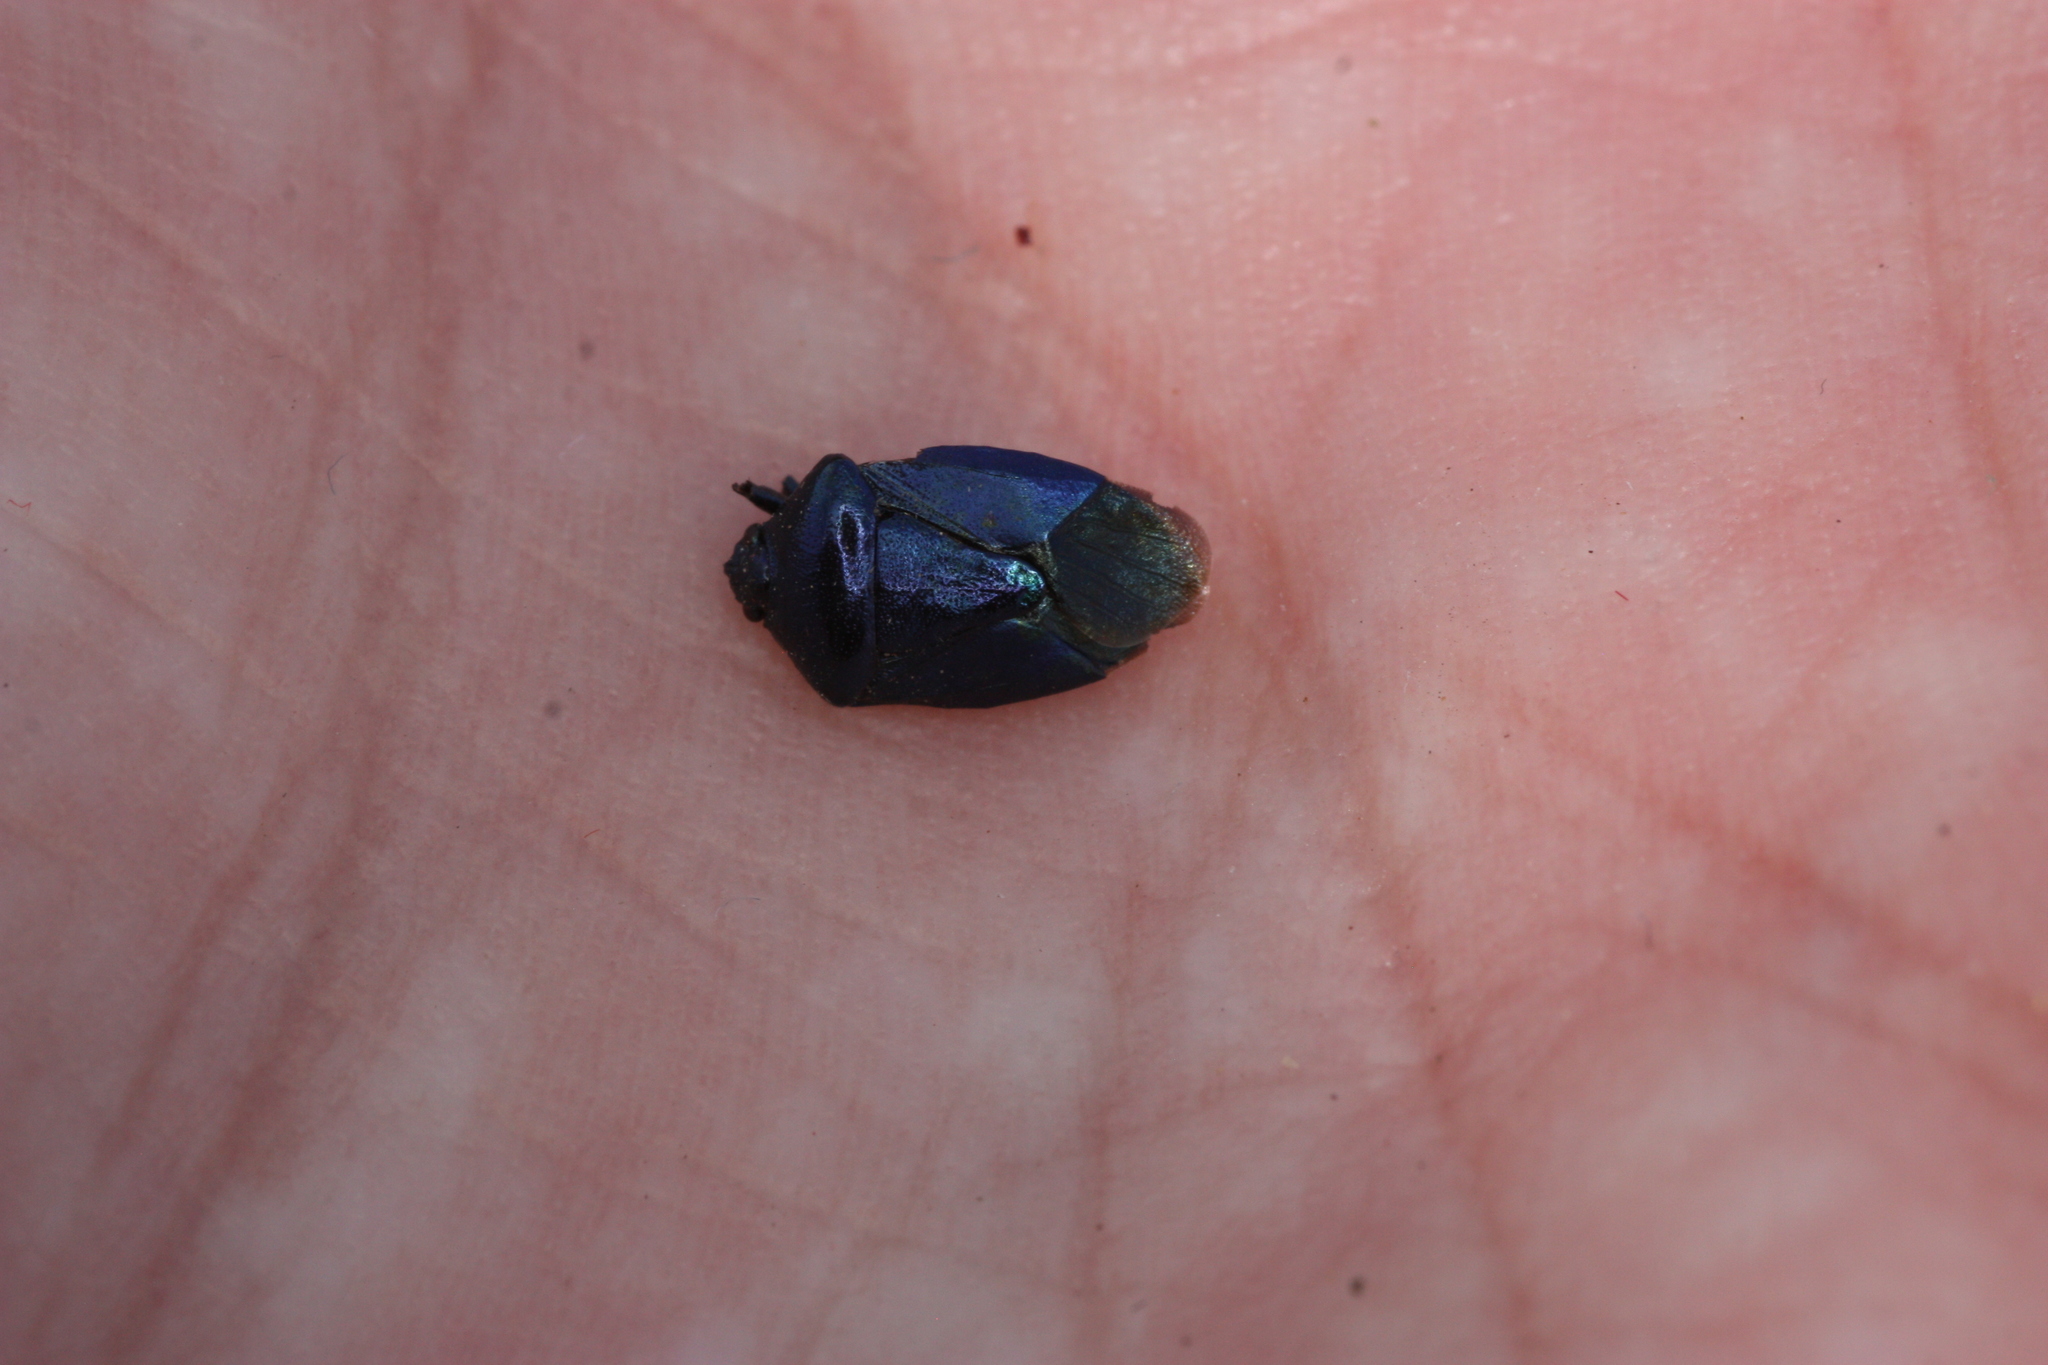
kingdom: Animalia
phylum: Arthropoda
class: Insecta
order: Hemiptera
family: Pentatomidae
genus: Zicrona
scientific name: Zicrona
